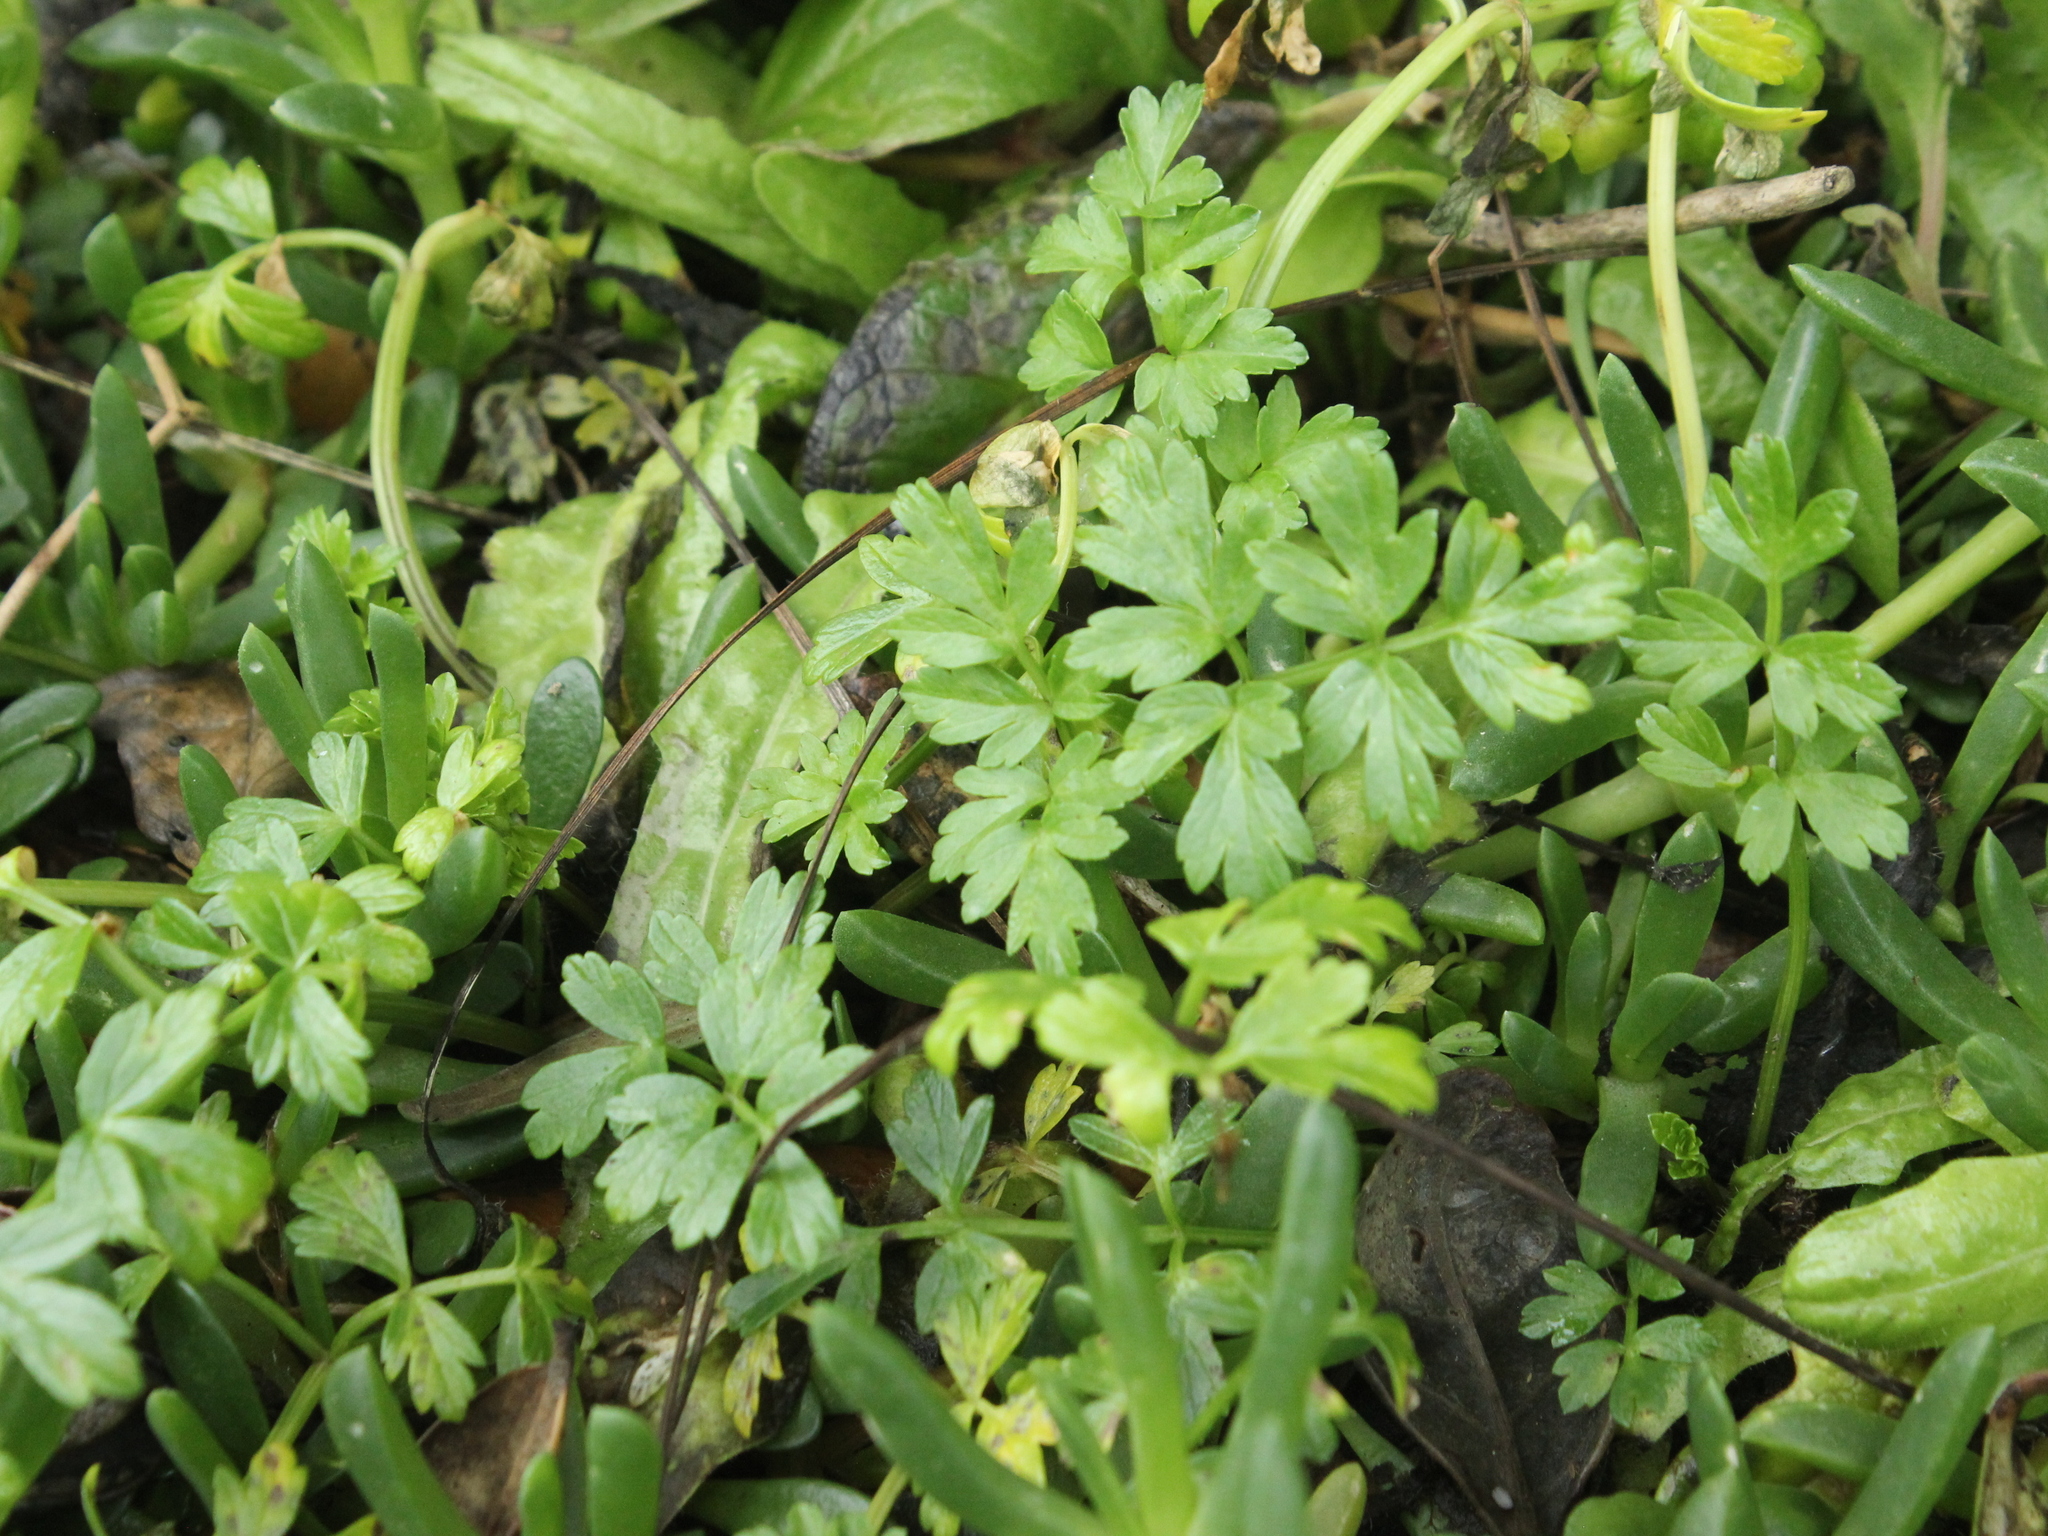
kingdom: Plantae
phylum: Tracheophyta
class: Magnoliopsida
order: Apiales
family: Apiaceae
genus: Apium
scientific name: Apium prostratum
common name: Prostrate marshwort
